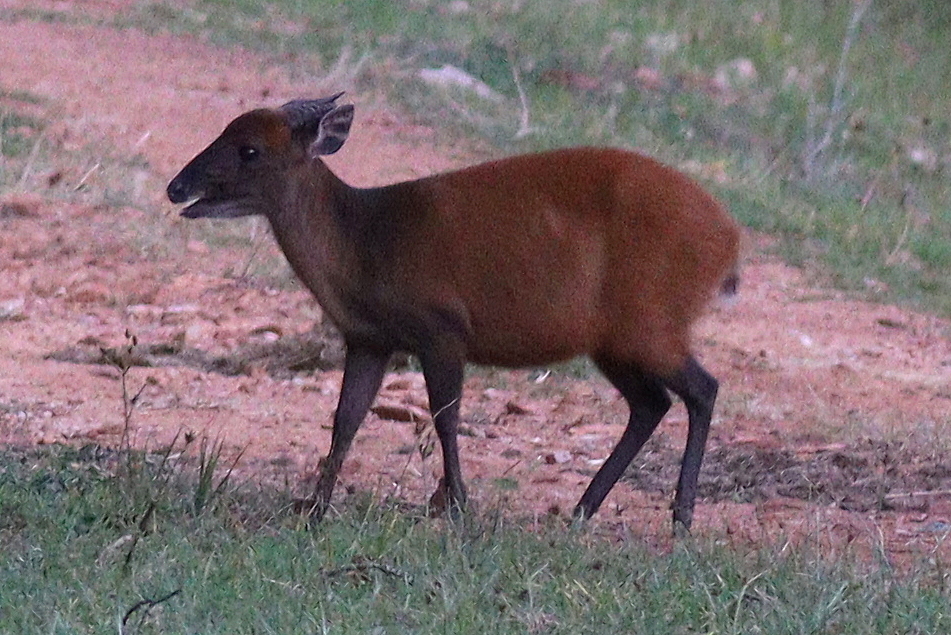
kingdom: Animalia
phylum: Chordata
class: Mammalia
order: Artiodactyla
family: Bovidae
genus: Cephalophus
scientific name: Cephalophus weynsi
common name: Weyns's duiker
